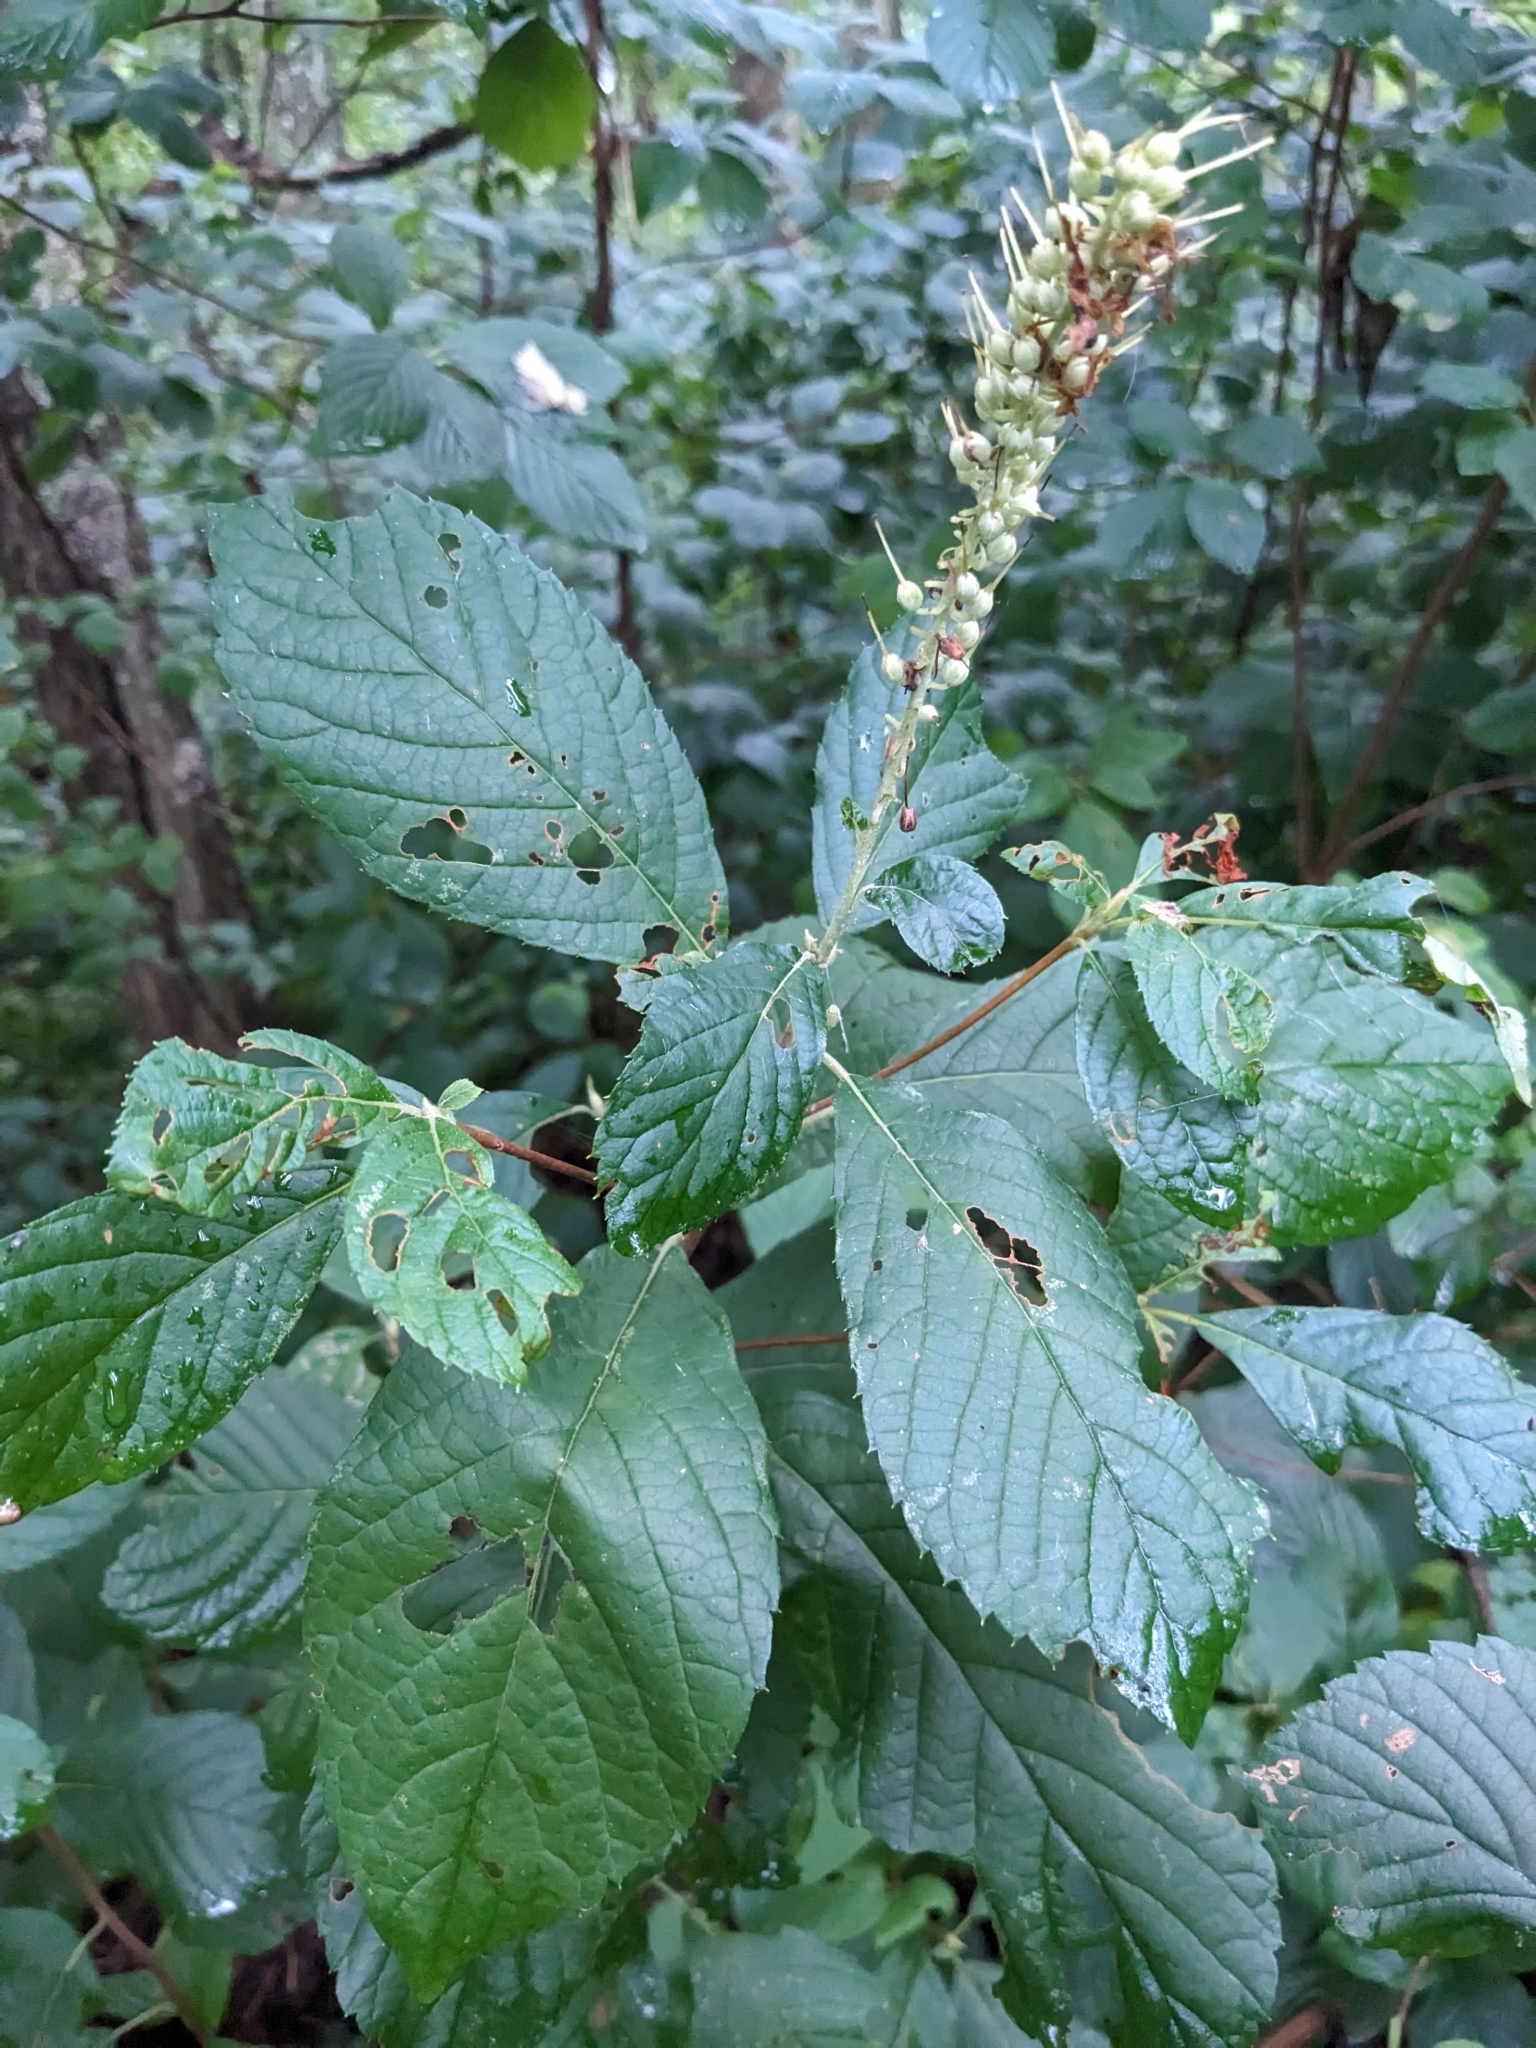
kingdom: Plantae
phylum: Tracheophyta
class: Magnoliopsida
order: Ericales
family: Clethraceae
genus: Clethra
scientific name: Clethra alnifolia
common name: Sweet pepperbush
